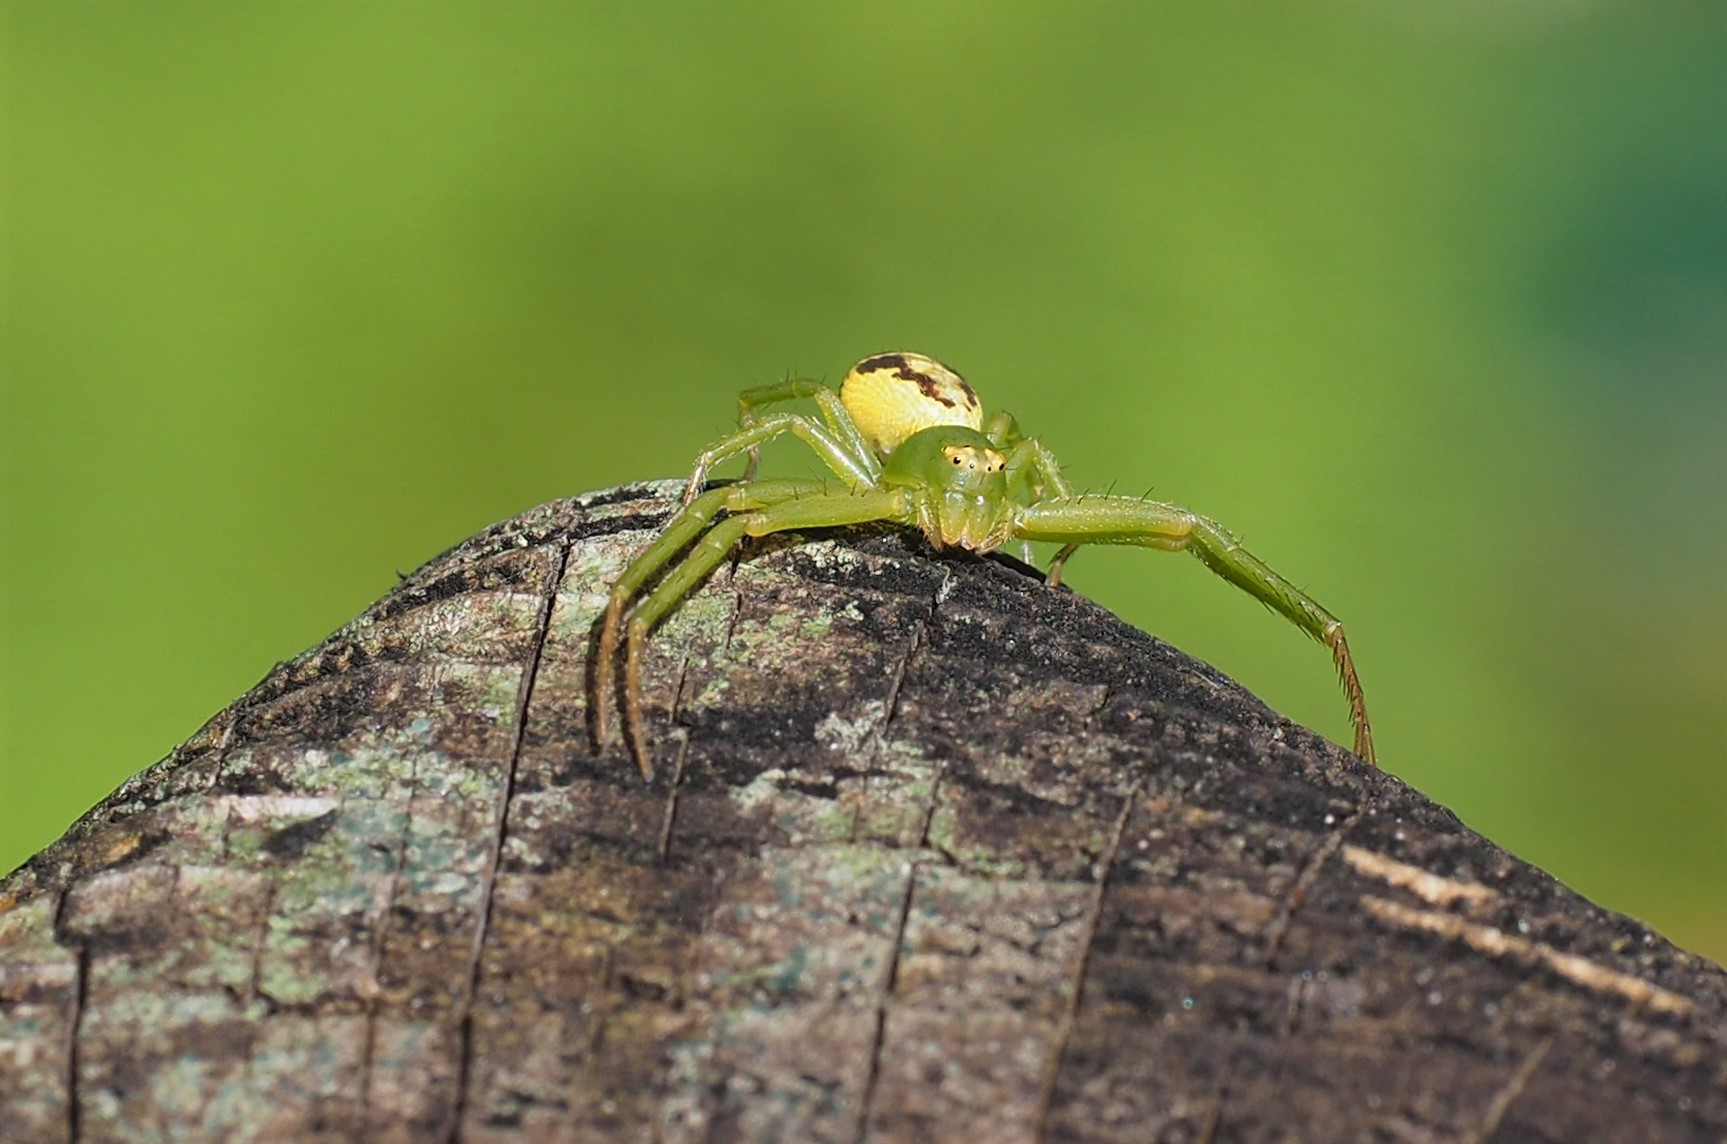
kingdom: Animalia
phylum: Arthropoda
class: Arachnida
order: Araneae
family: Thomisidae
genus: Diaea
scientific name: Diaea subdola
